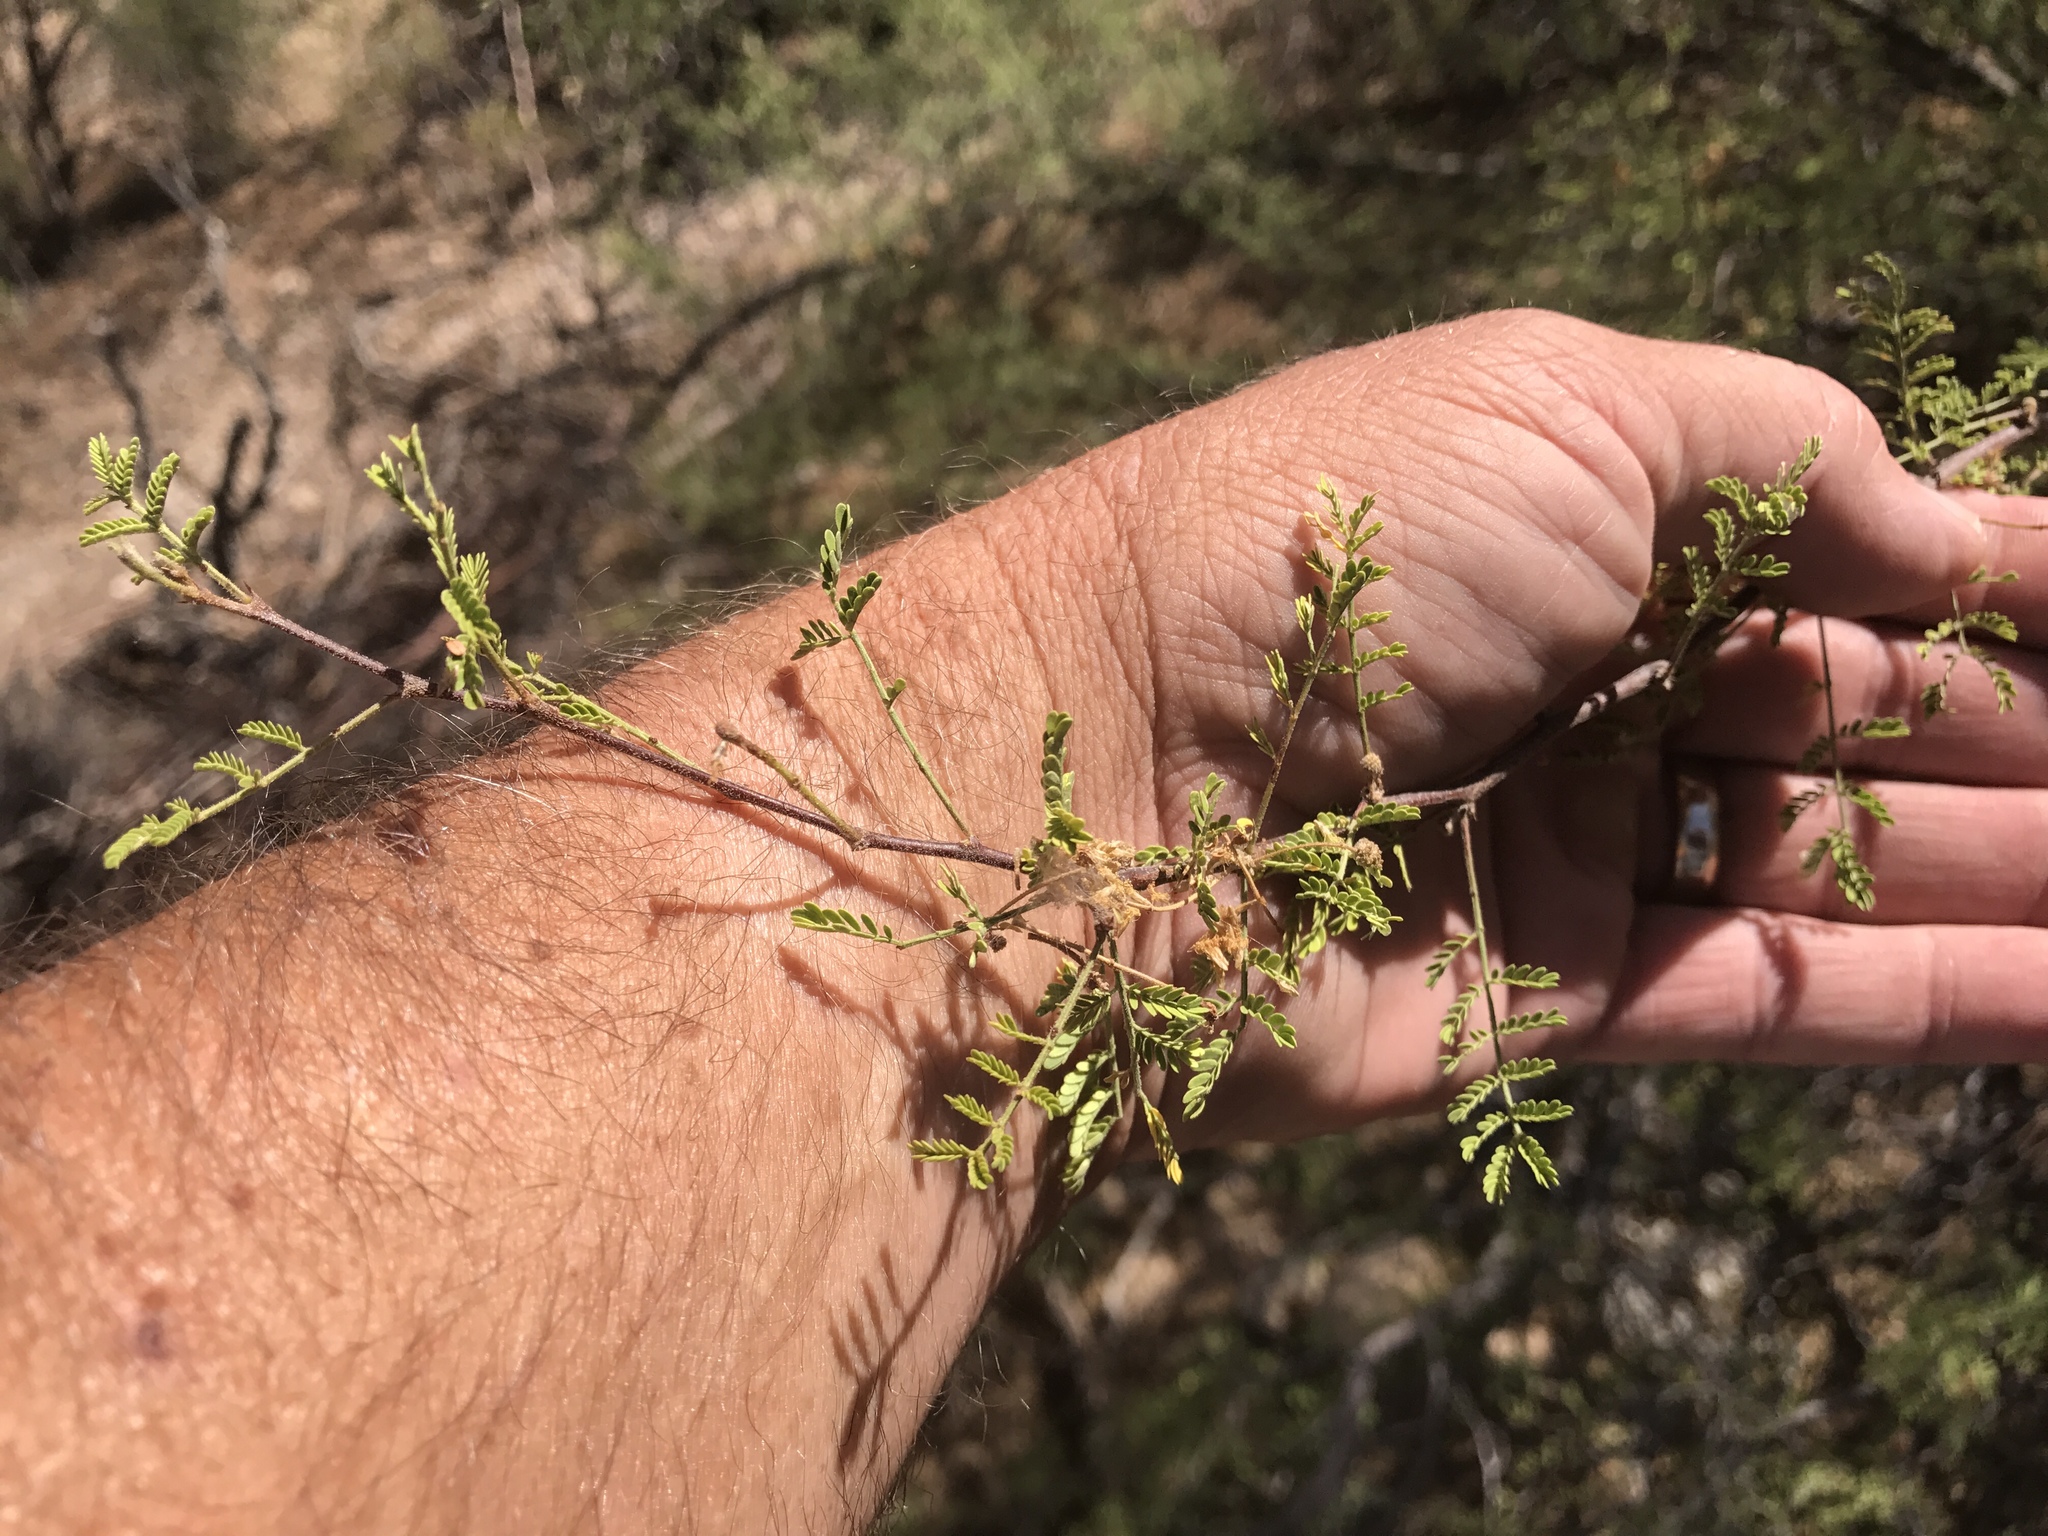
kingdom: Plantae
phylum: Tracheophyta
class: Magnoliopsida
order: Fabales
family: Fabaceae
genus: Vachellia
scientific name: Vachellia constricta
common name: Mescat acacia
